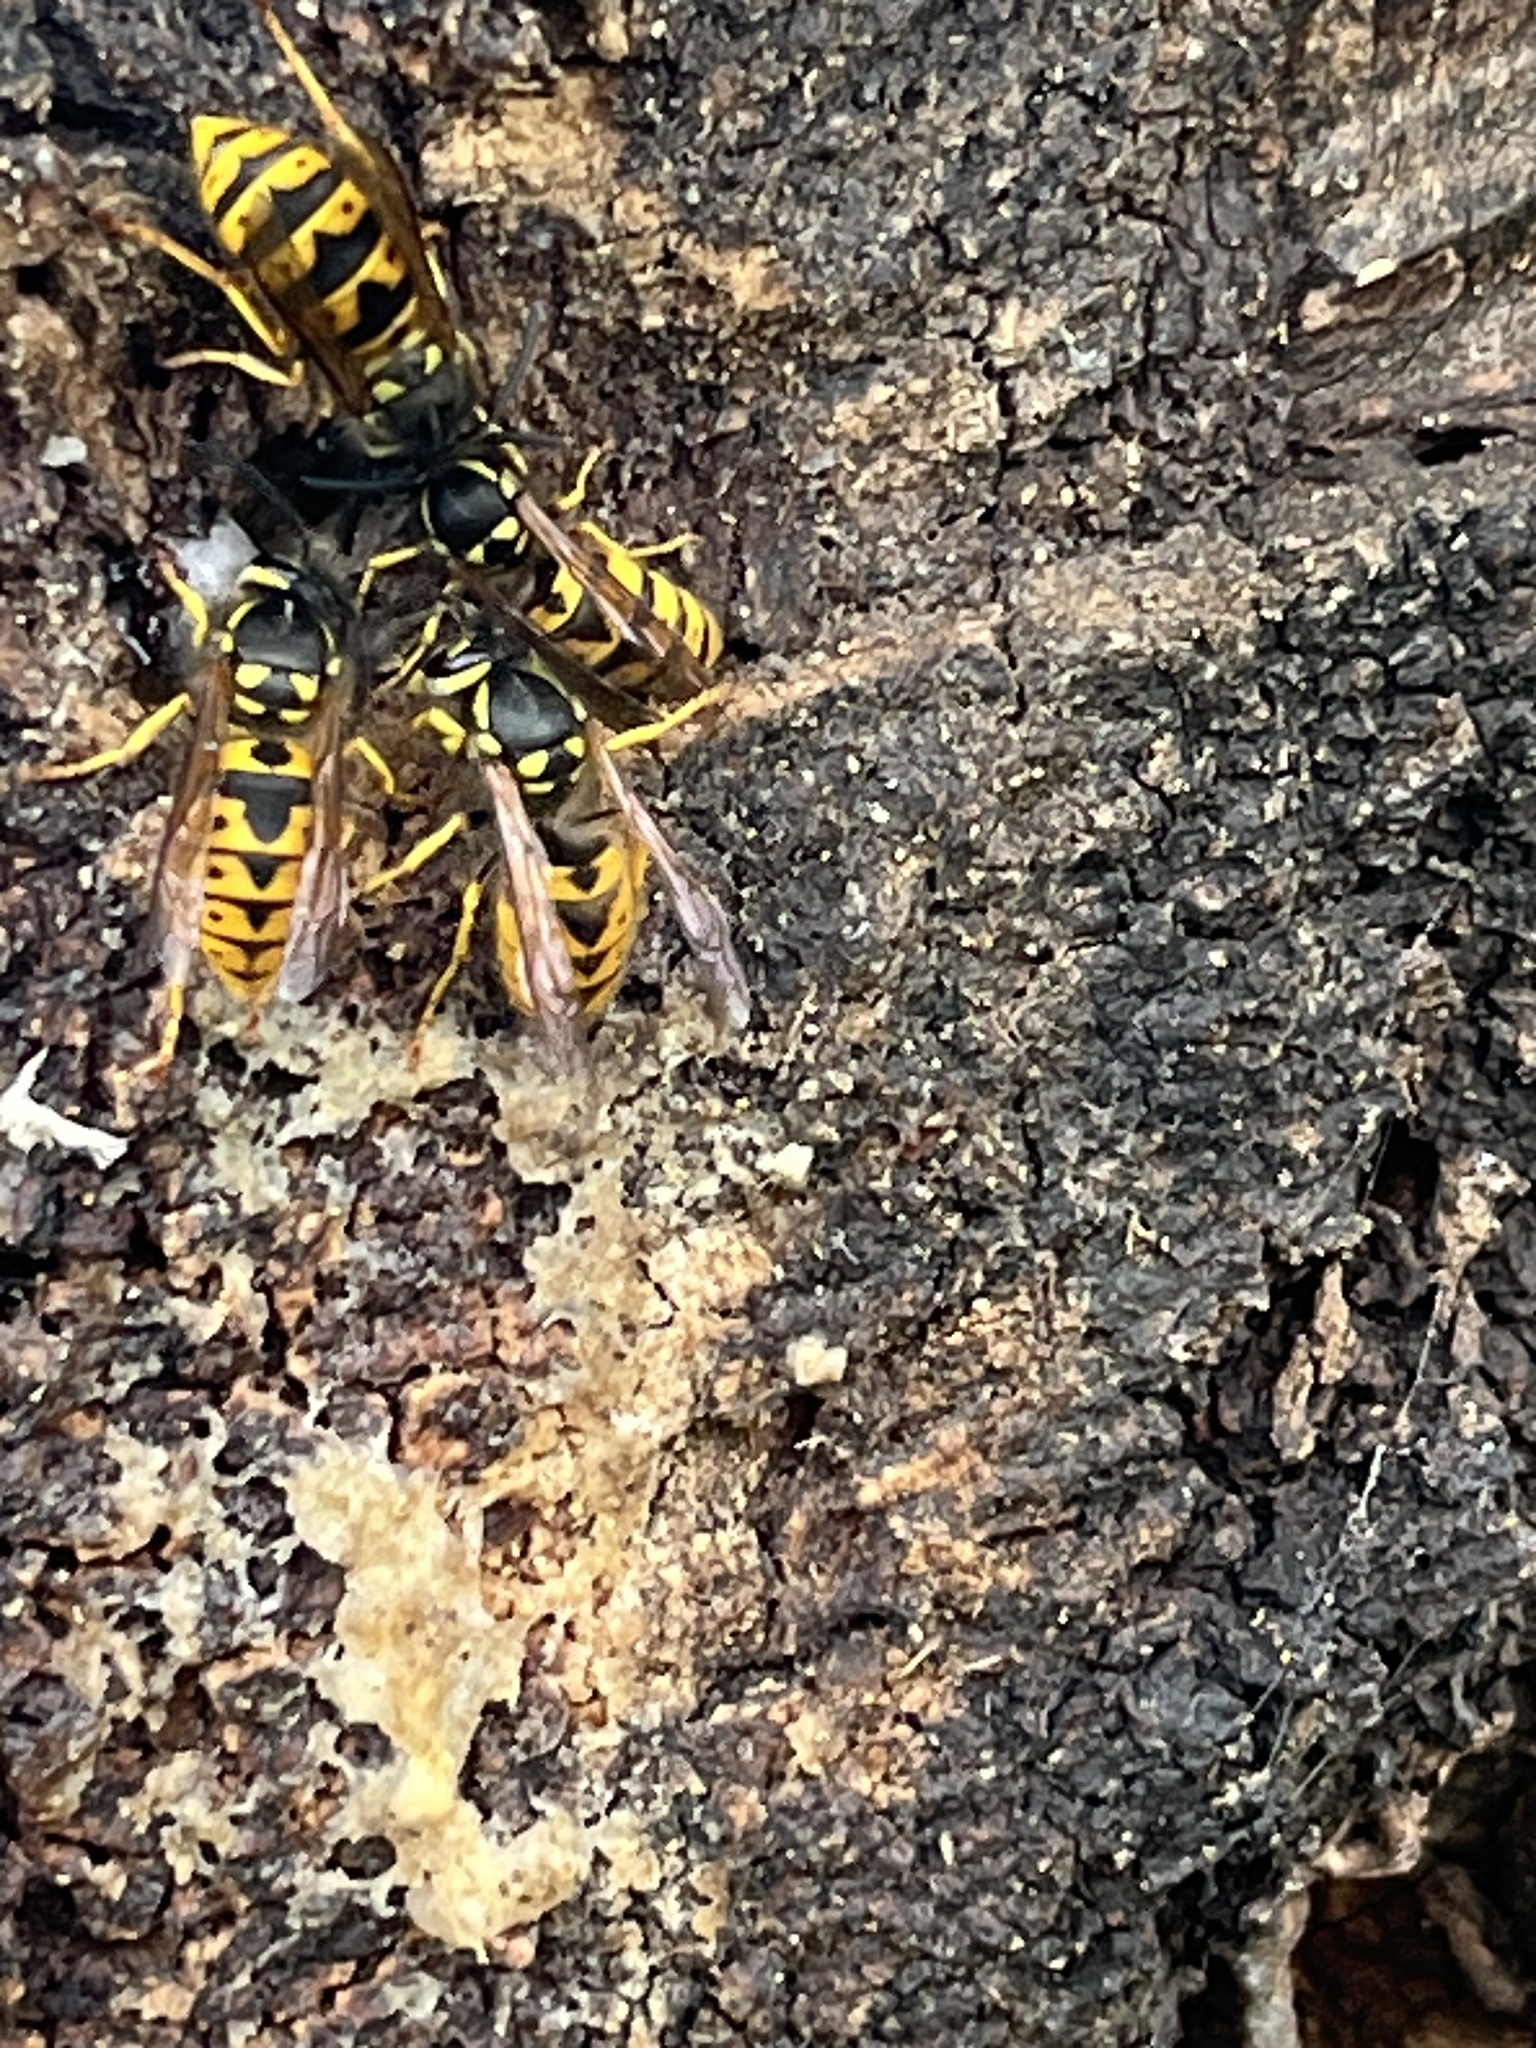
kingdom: Animalia
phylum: Arthropoda
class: Insecta
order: Hymenoptera
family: Vespidae
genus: Vespula
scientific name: Vespula germanica
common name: German wasp
